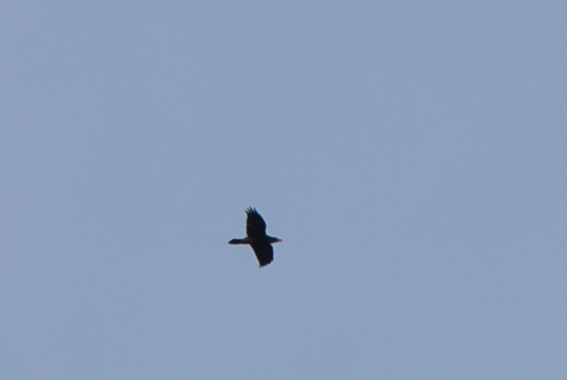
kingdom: Animalia
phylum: Chordata
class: Aves
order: Passeriformes
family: Corvidae
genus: Corvus
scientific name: Corvus corax
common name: Common raven
